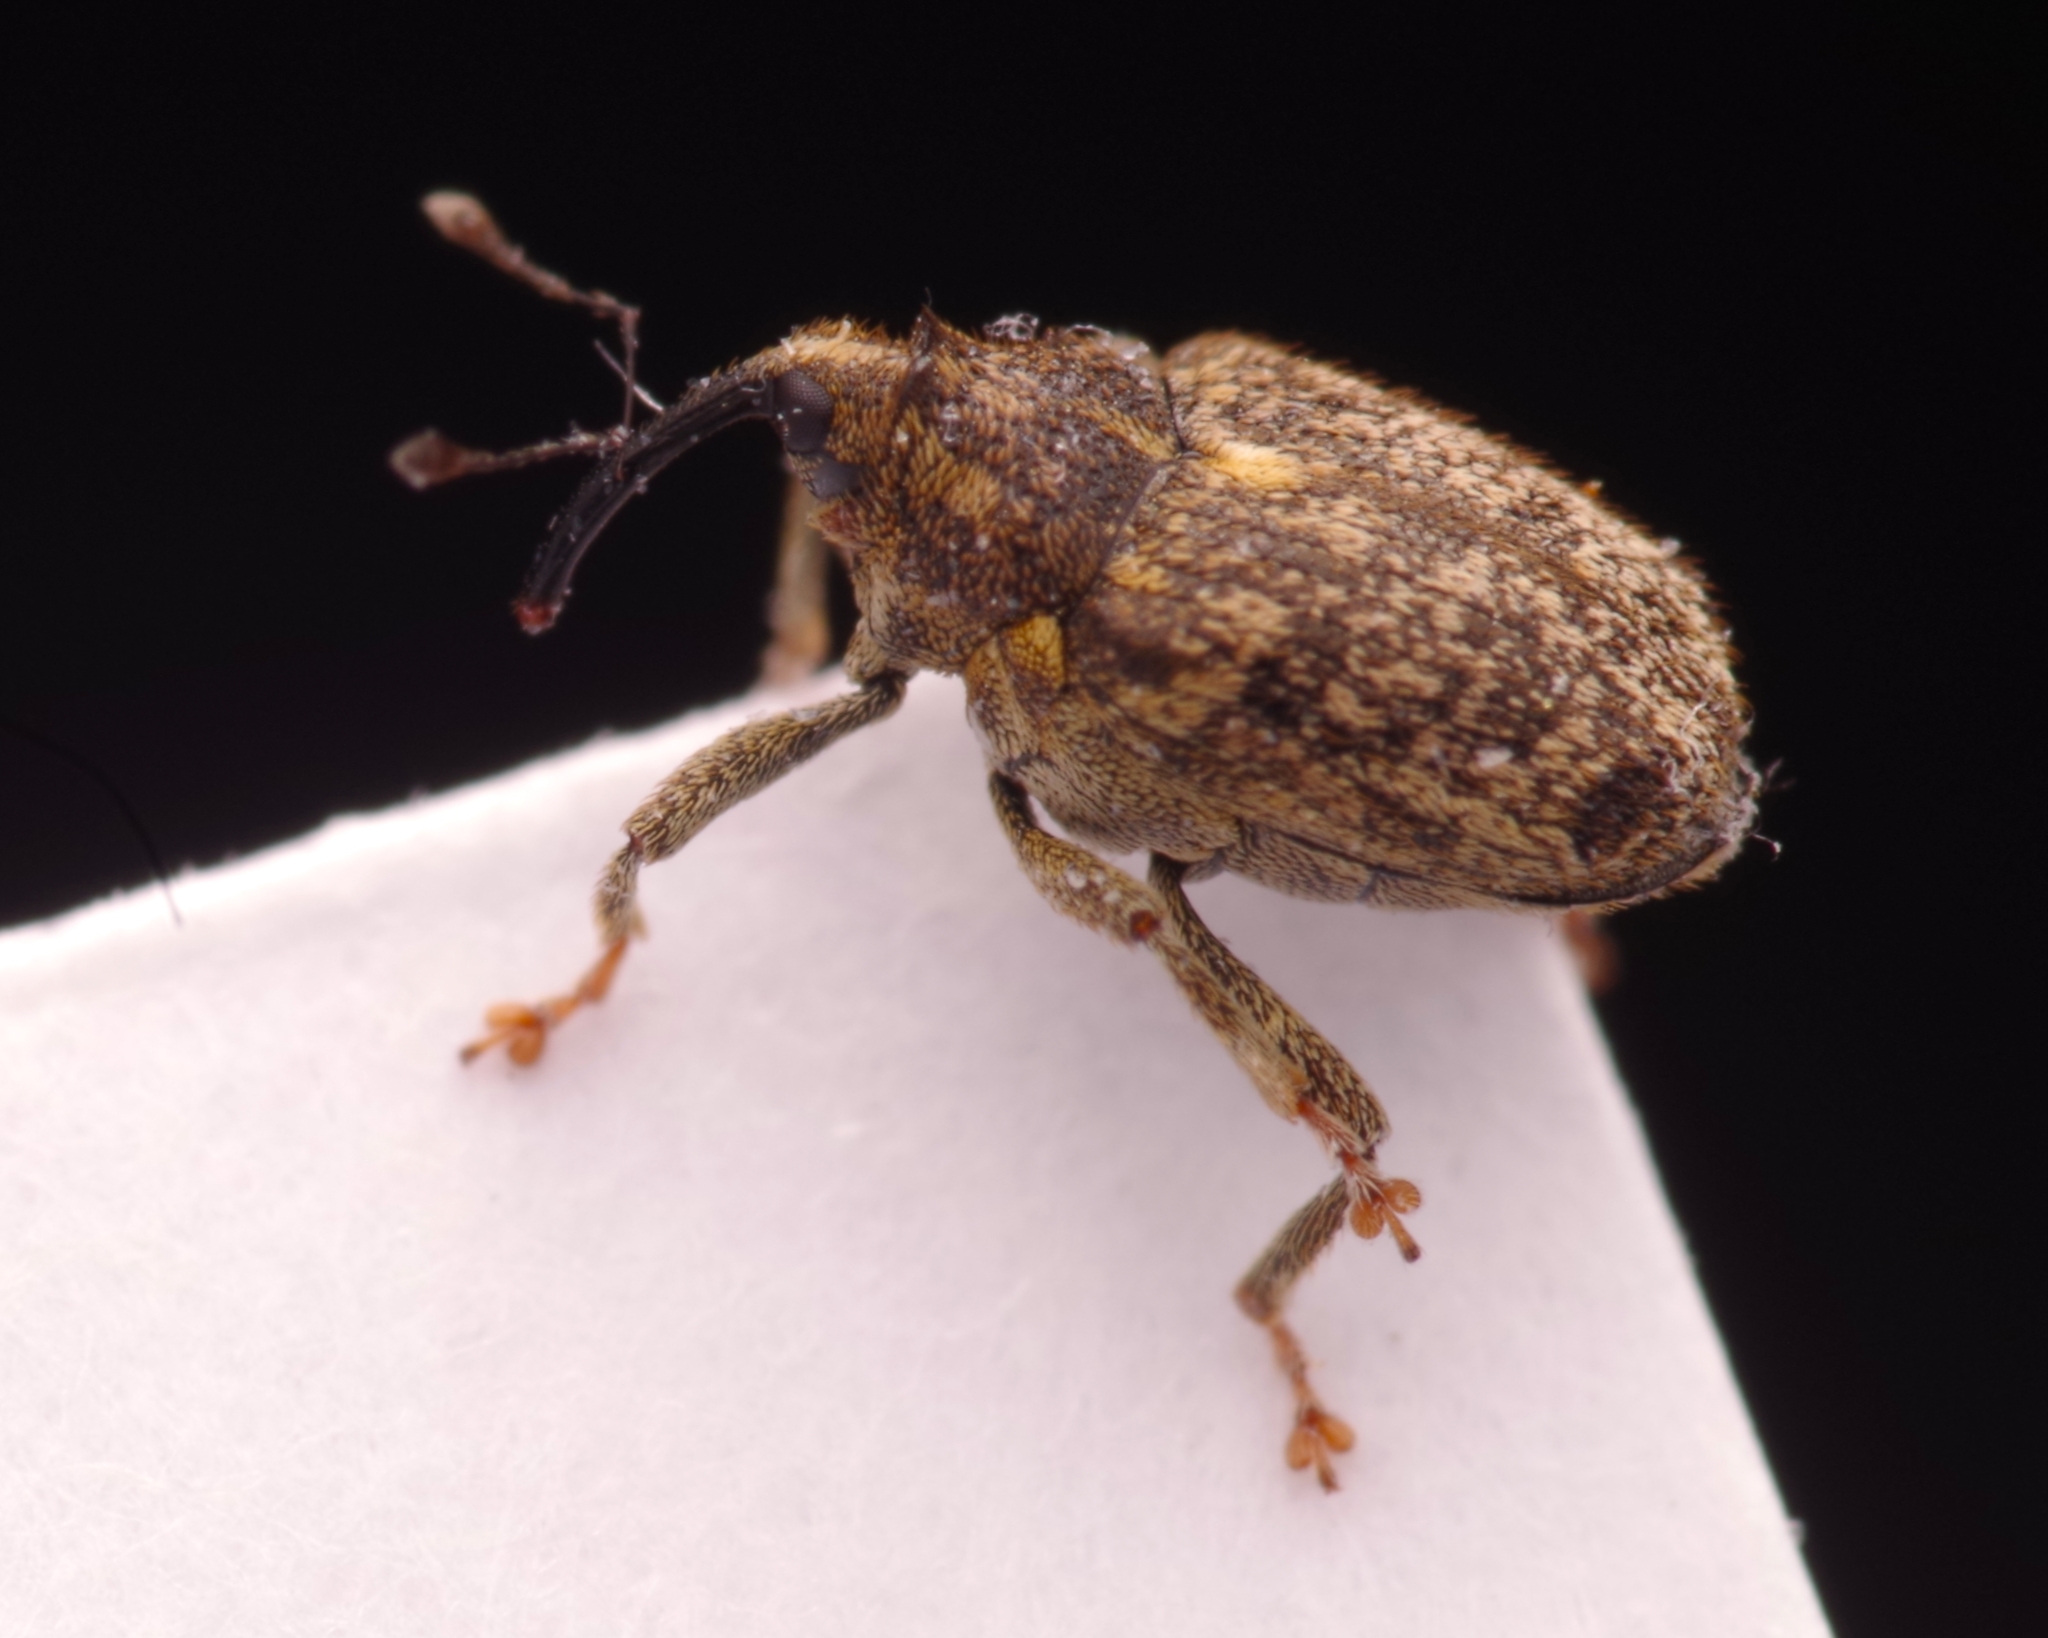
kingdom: Animalia
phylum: Arthropoda
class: Insecta
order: Coleoptera
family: Curculionidae
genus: Ceutorhynchus
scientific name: Ceutorhynchus pallidactylus
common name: Cabbage stem weavil
